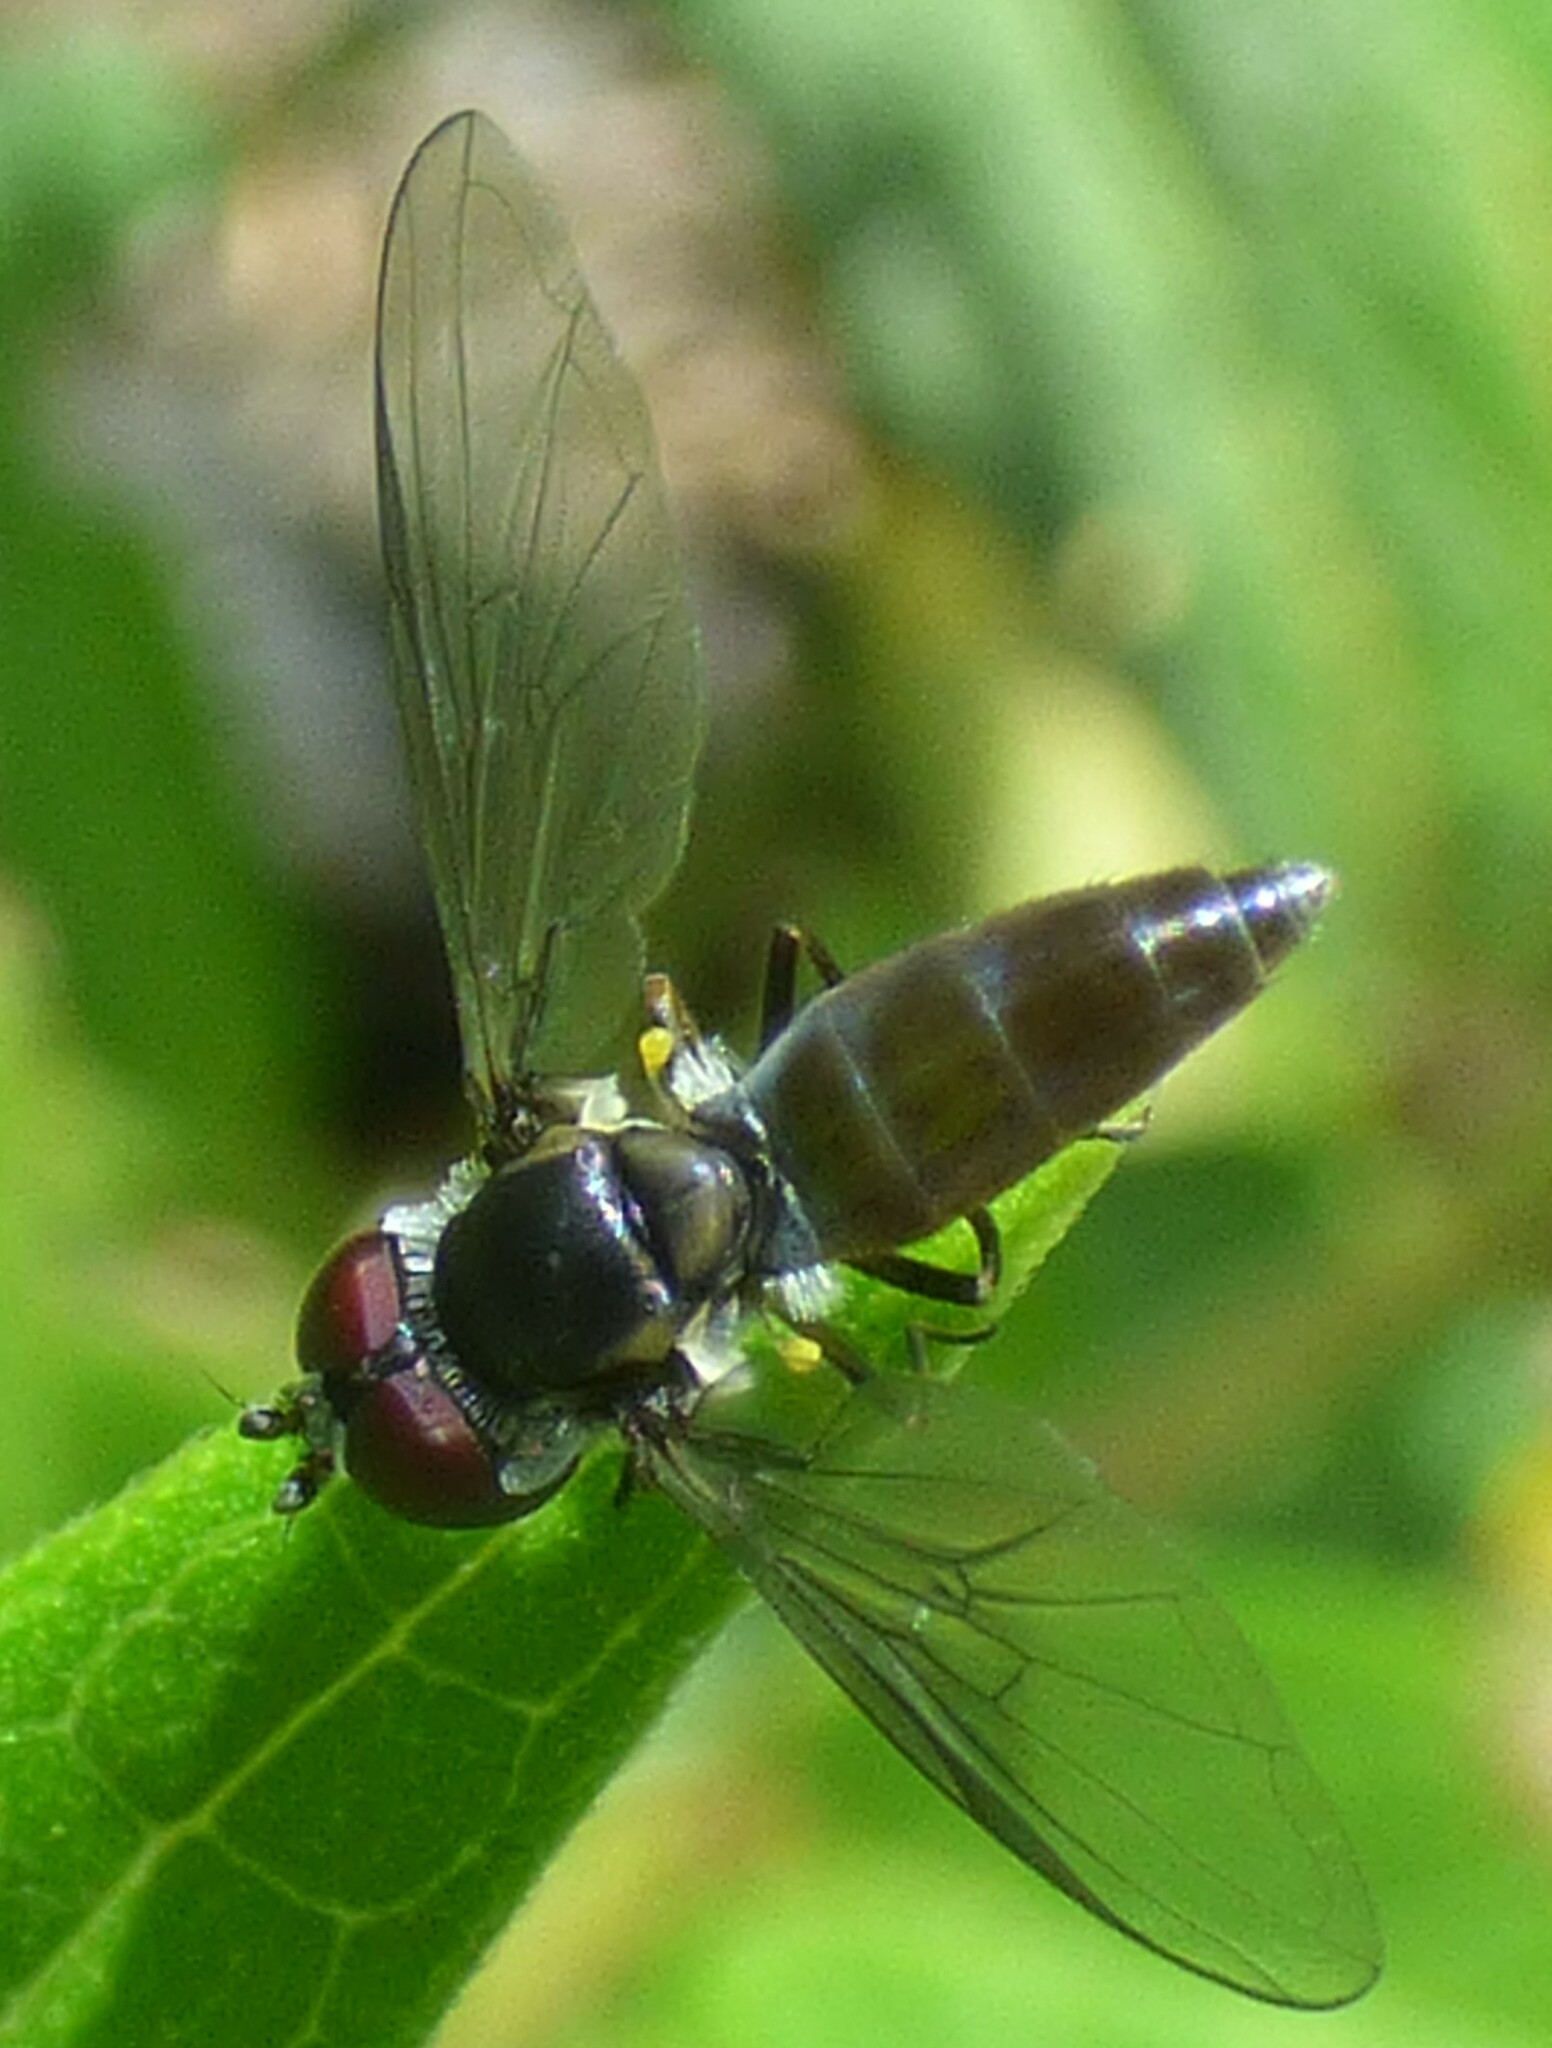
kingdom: Animalia
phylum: Arthropoda
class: Insecta
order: Diptera
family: Syrphidae
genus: Ocyptamus
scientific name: Ocyptamus dimidiatus
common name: Syrphid fly
